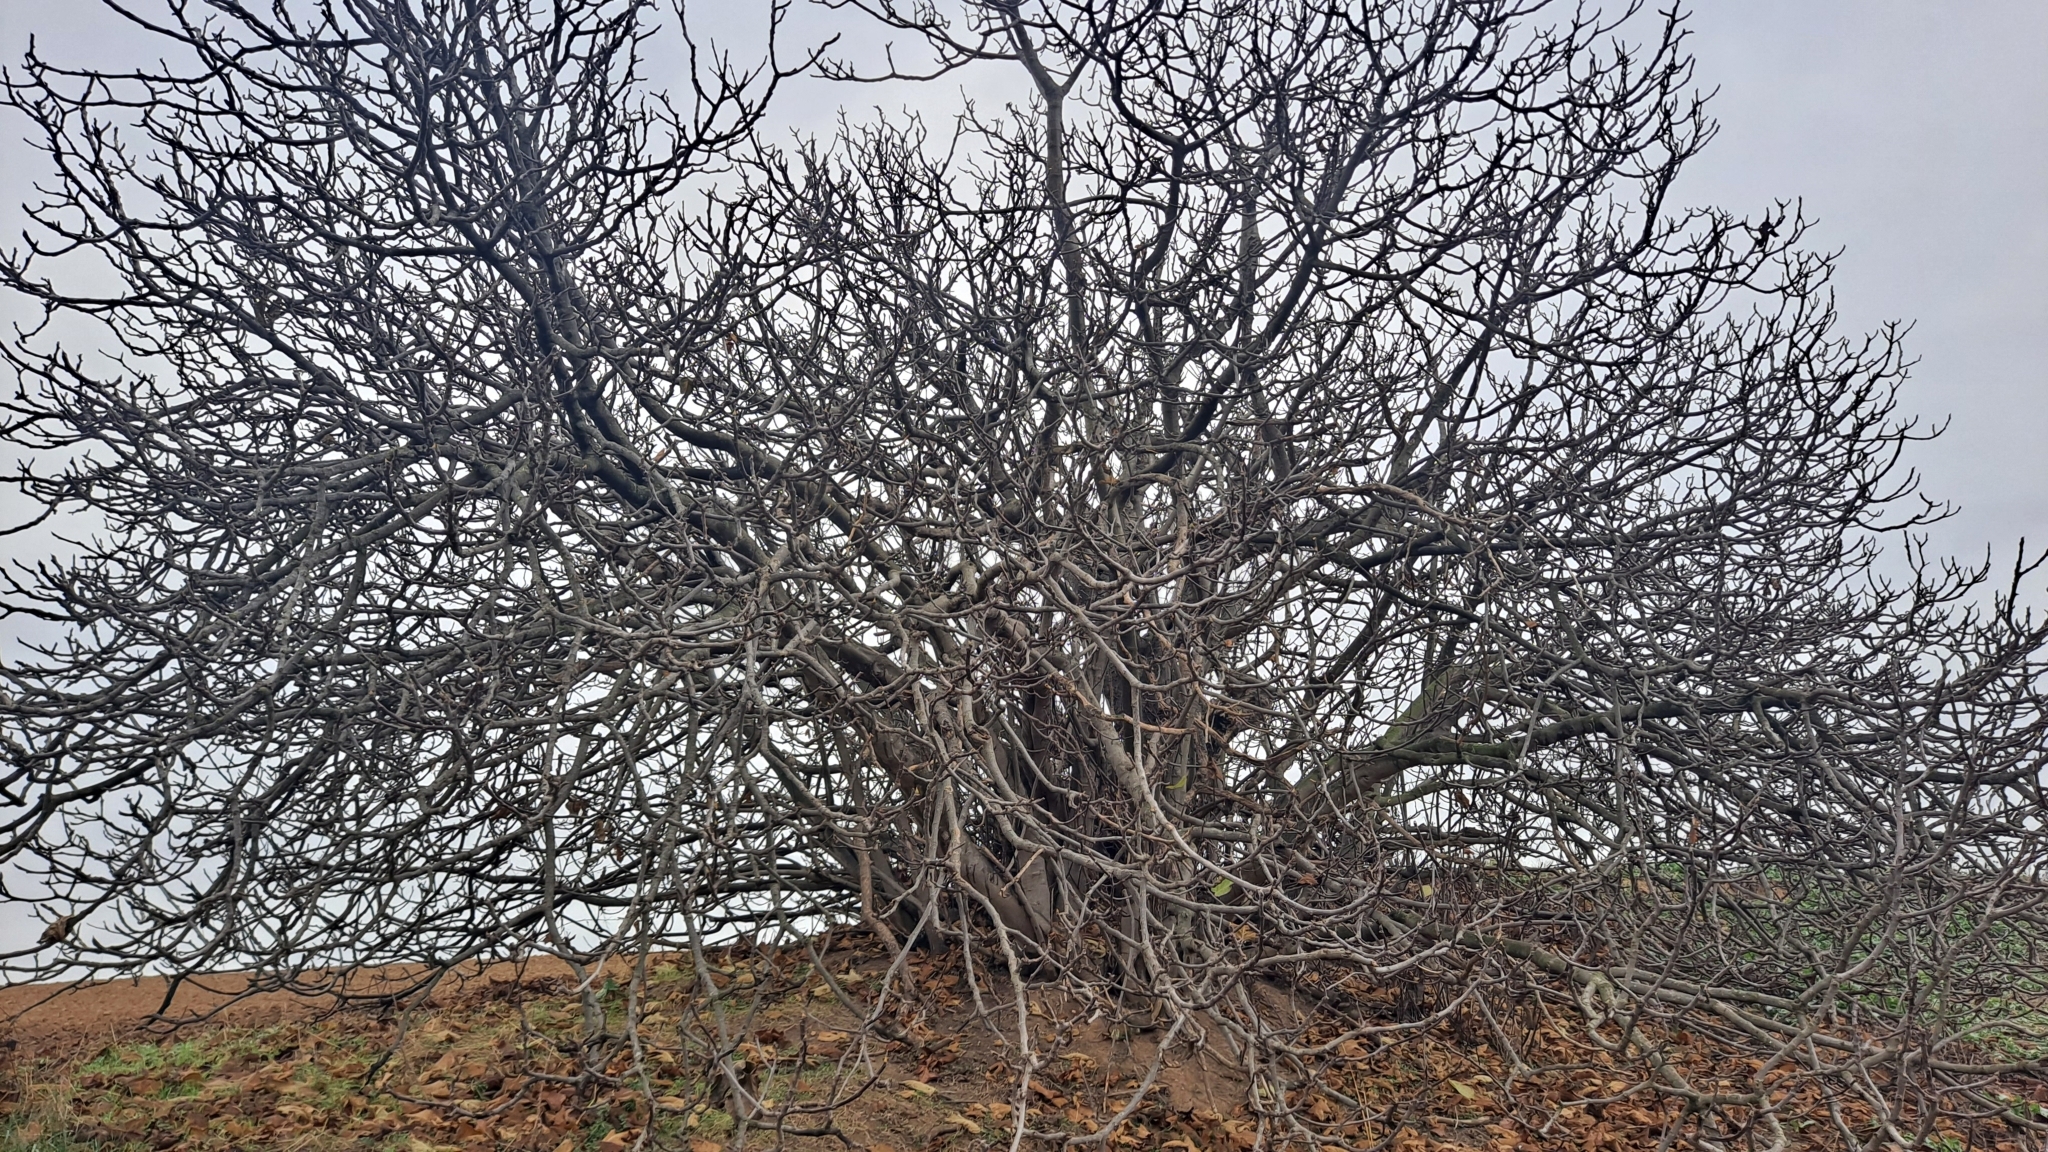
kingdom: Plantae
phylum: Tracheophyta
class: Magnoliopsida
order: Rosales
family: Moraceae
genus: Ficus
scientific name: Ficus carica
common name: Fig
